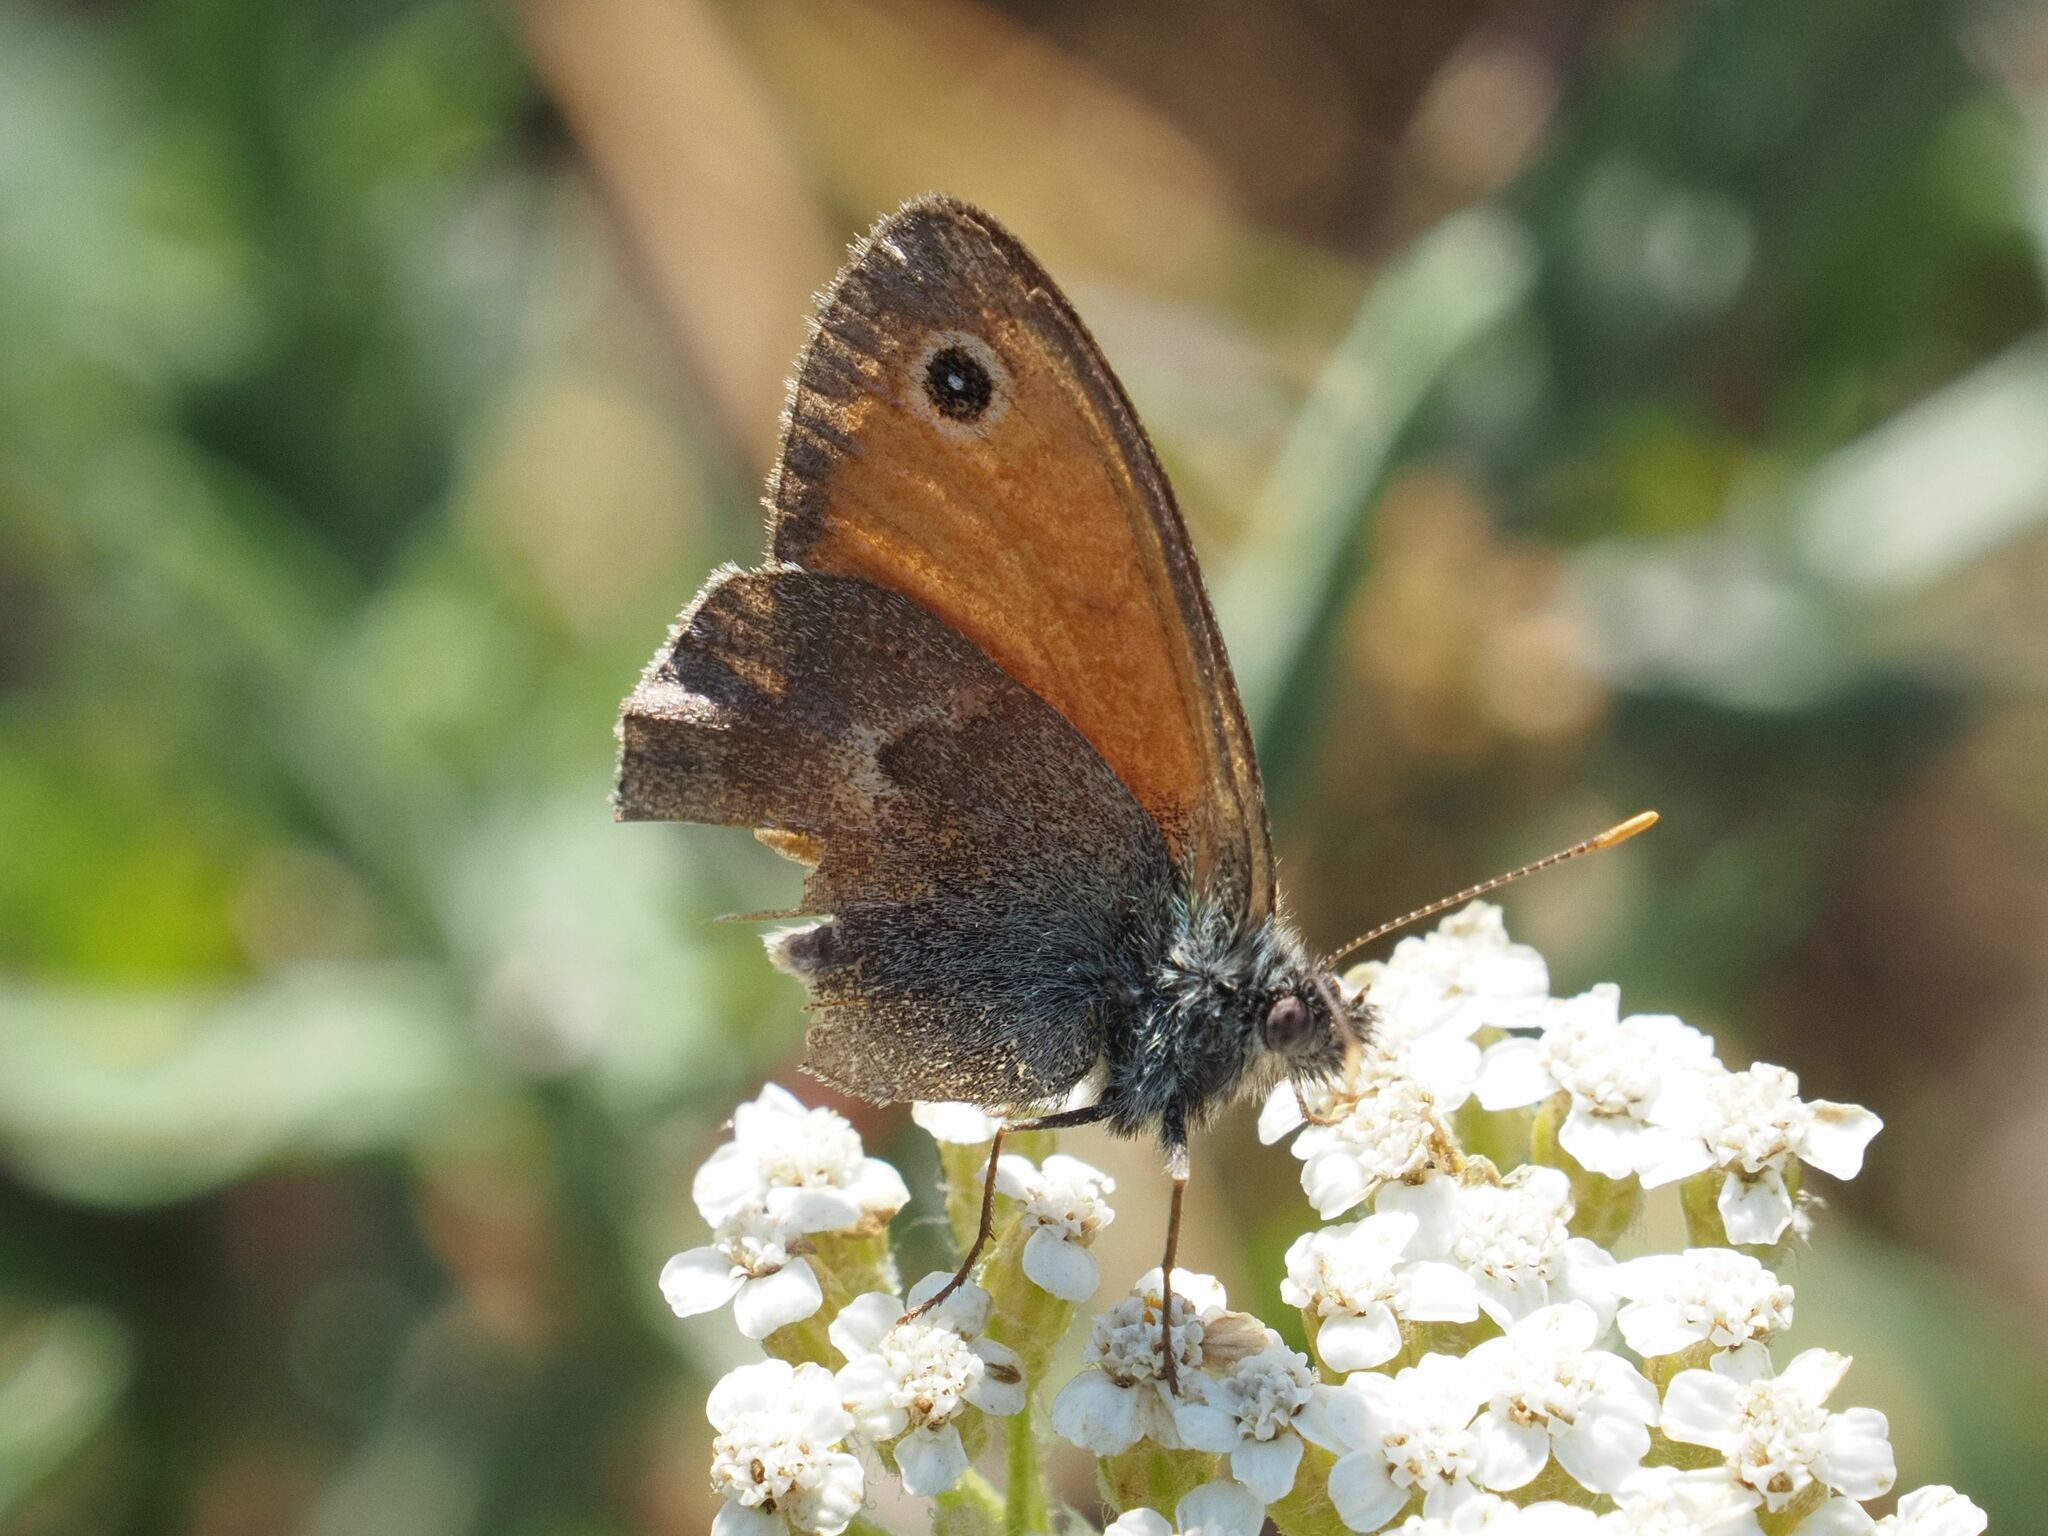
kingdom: Animalia
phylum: Arthropoda
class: Insecta
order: Lepidoptera
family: Nymphalidae
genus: Coenonympha
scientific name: Coenonympha pamphilus
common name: Small heath
